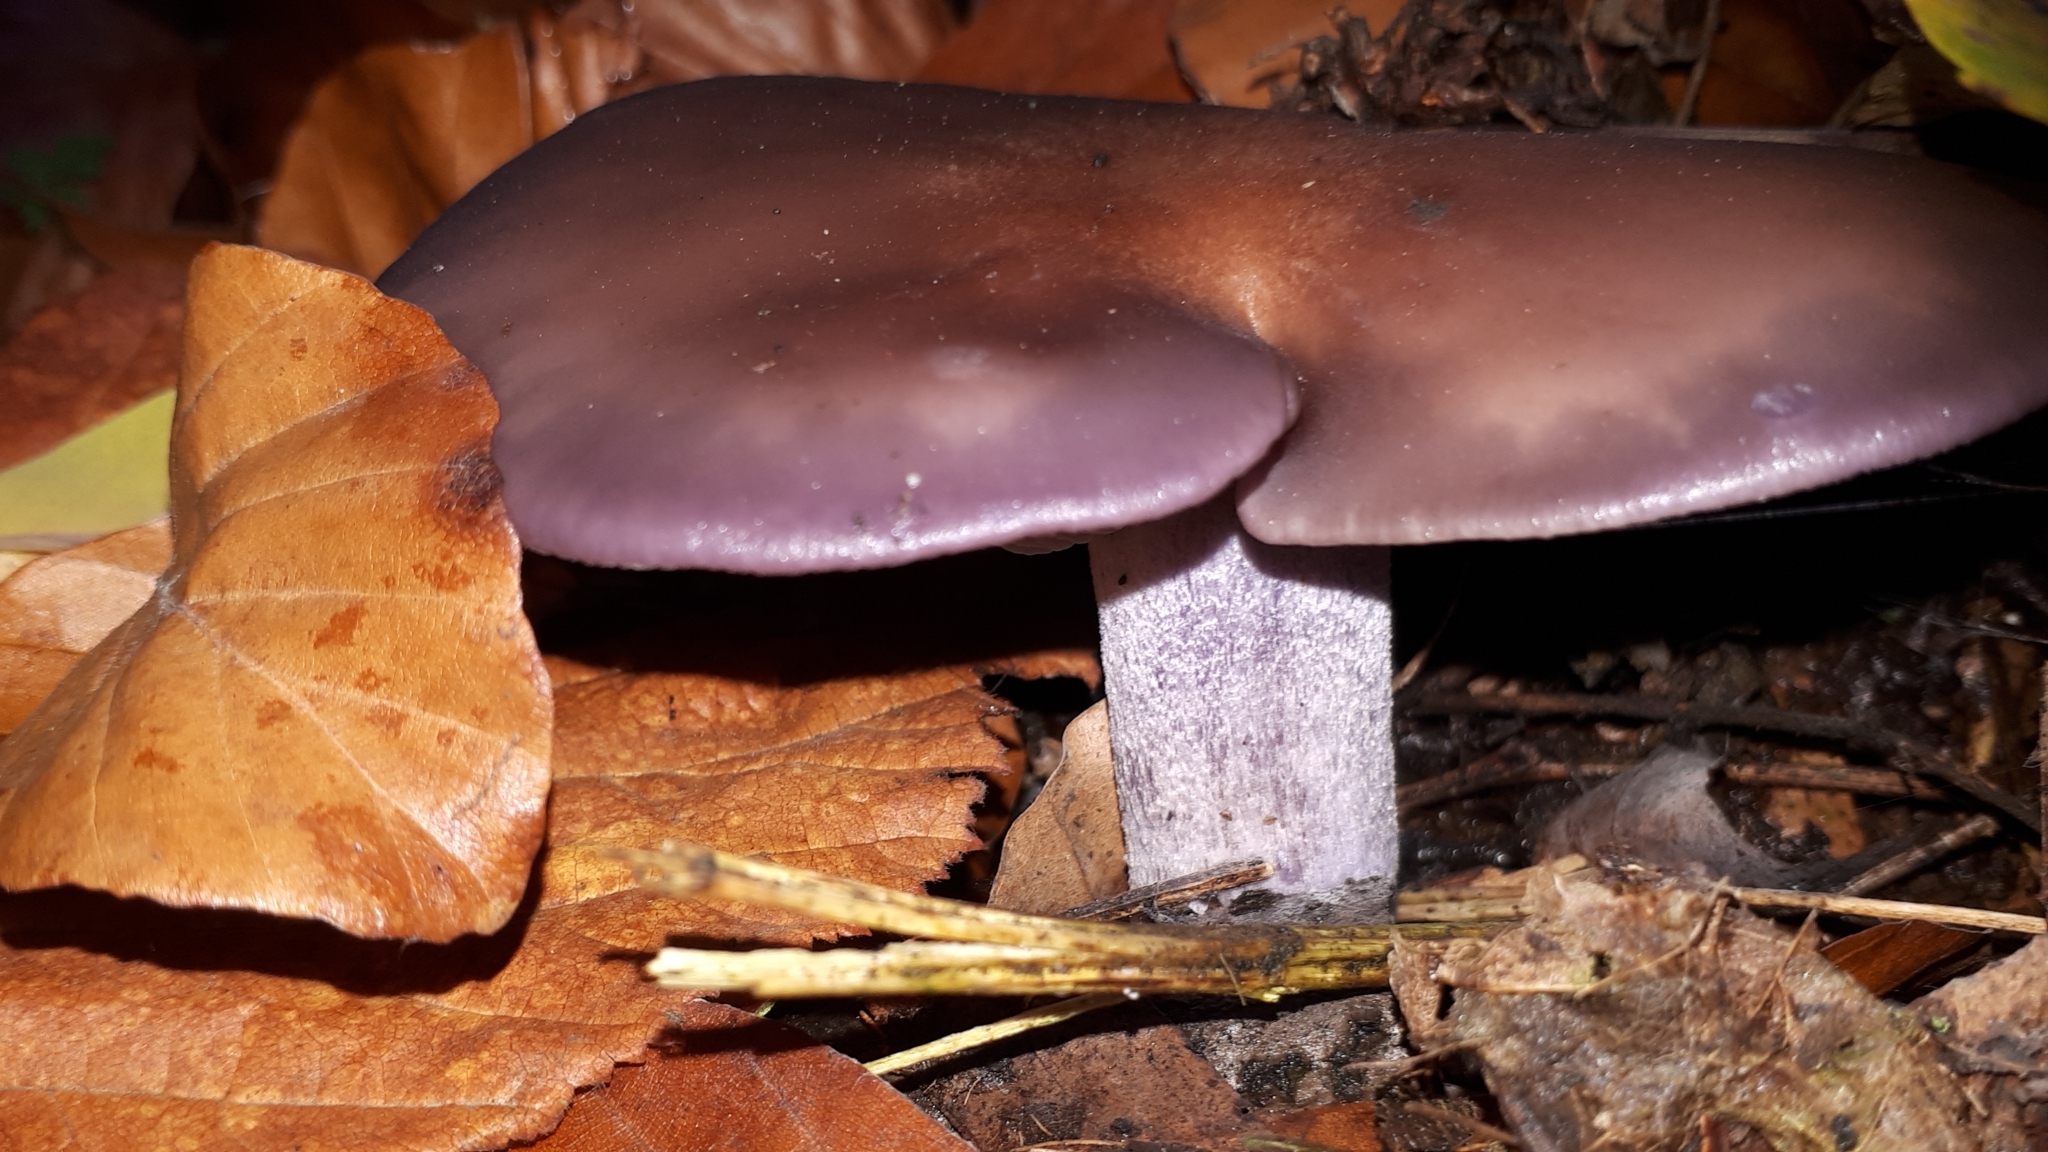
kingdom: Fungi
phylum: Basidiomycota
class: Agaricomycetes
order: Agaricales
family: Tricholomataceae
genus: Collybia
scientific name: Collybia
